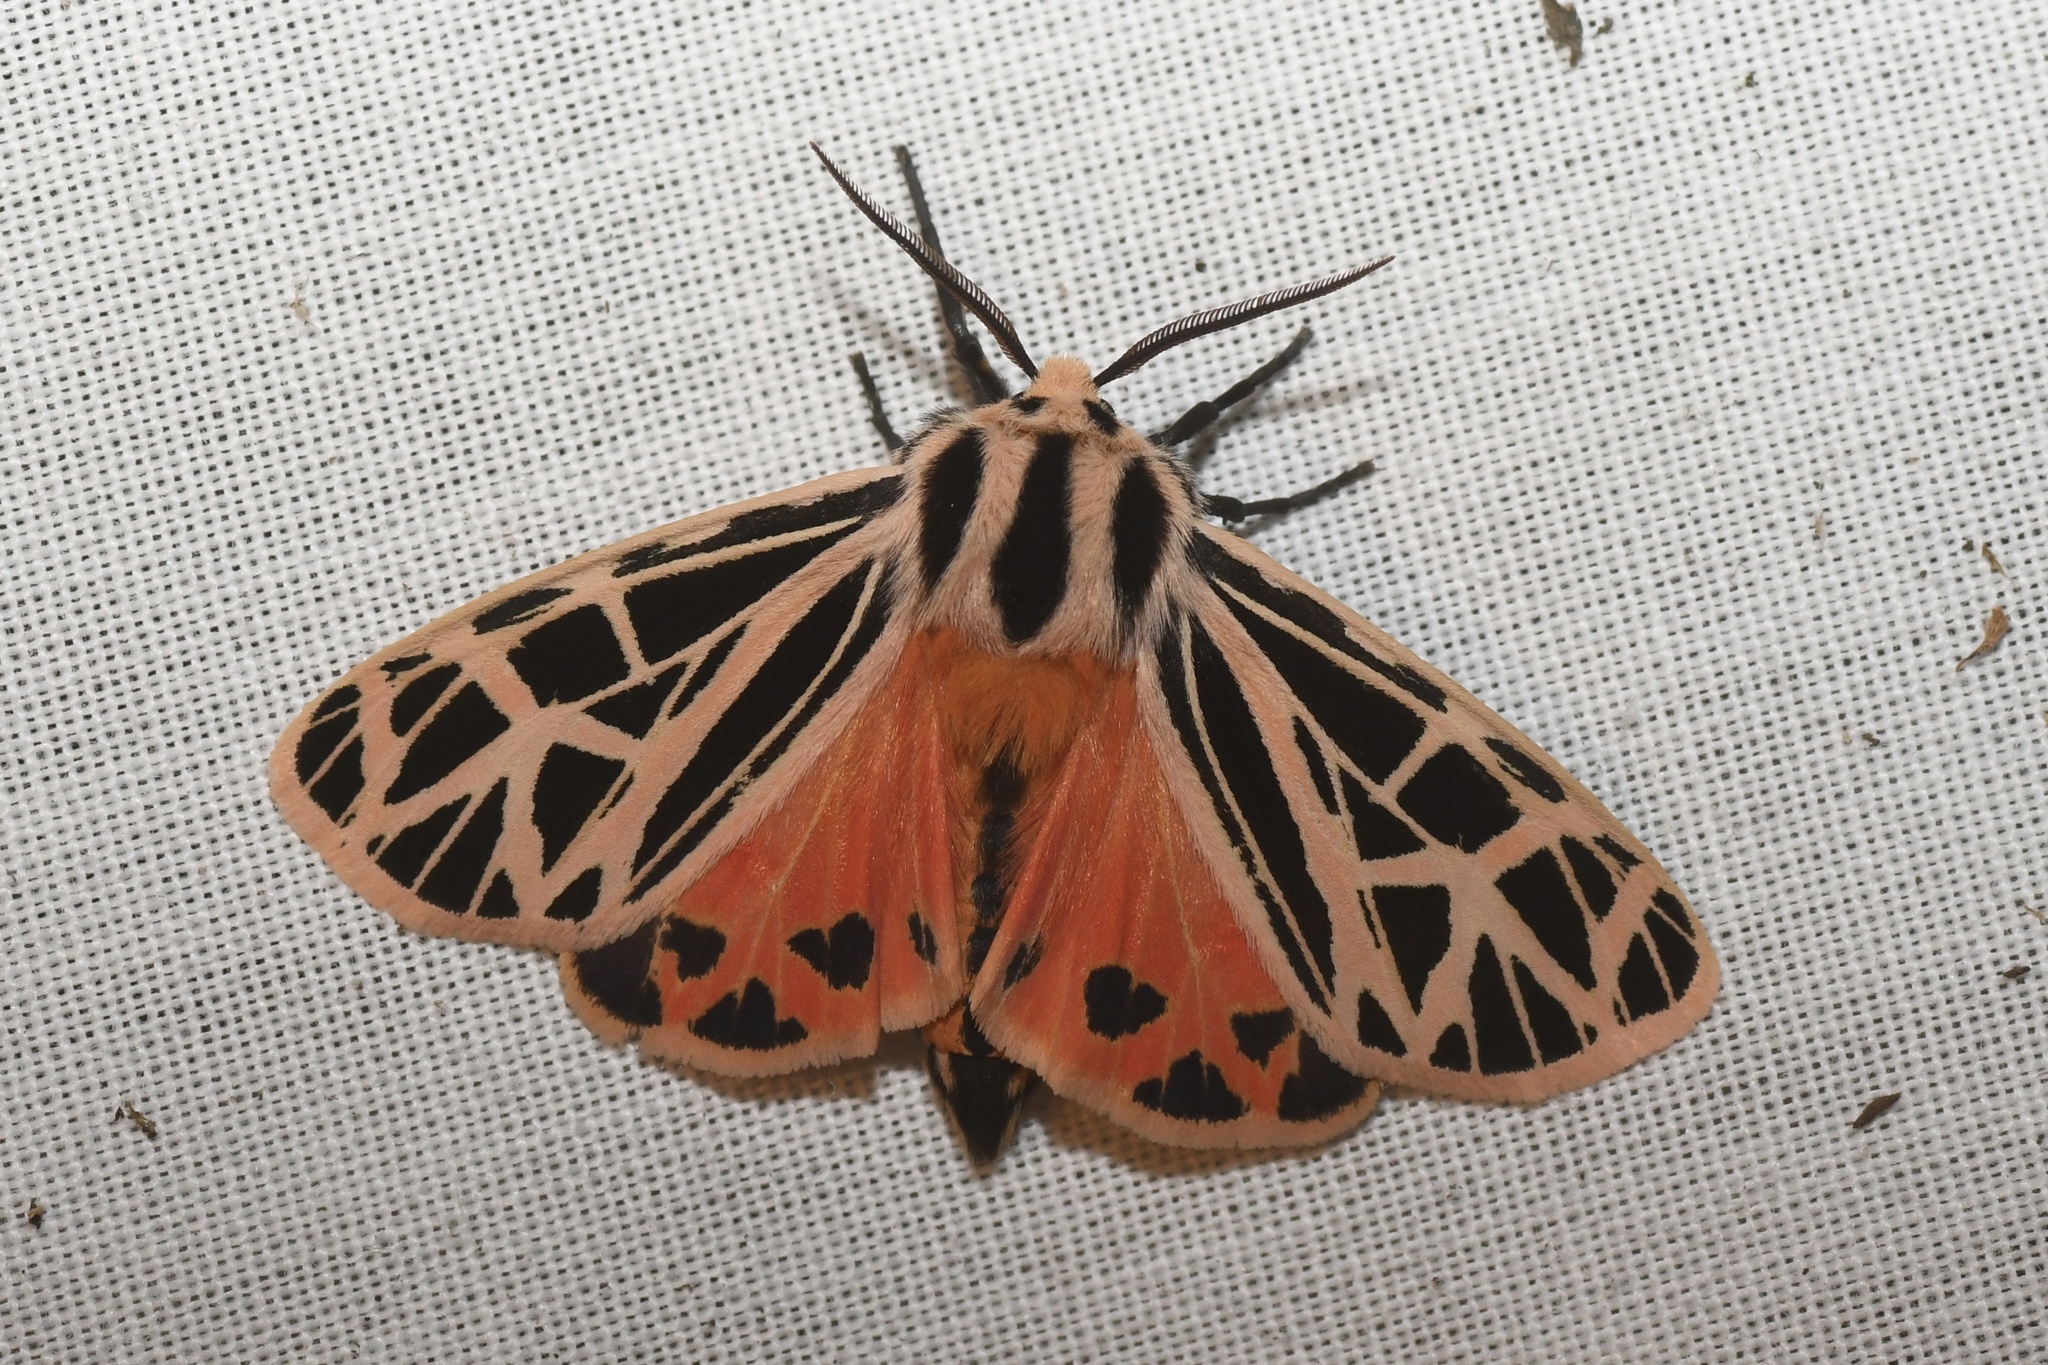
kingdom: Animalia
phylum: Arthropoda
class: Insecta
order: Lepidoptera
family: Erebidae
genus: Grammia
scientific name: Grammia parthenice
